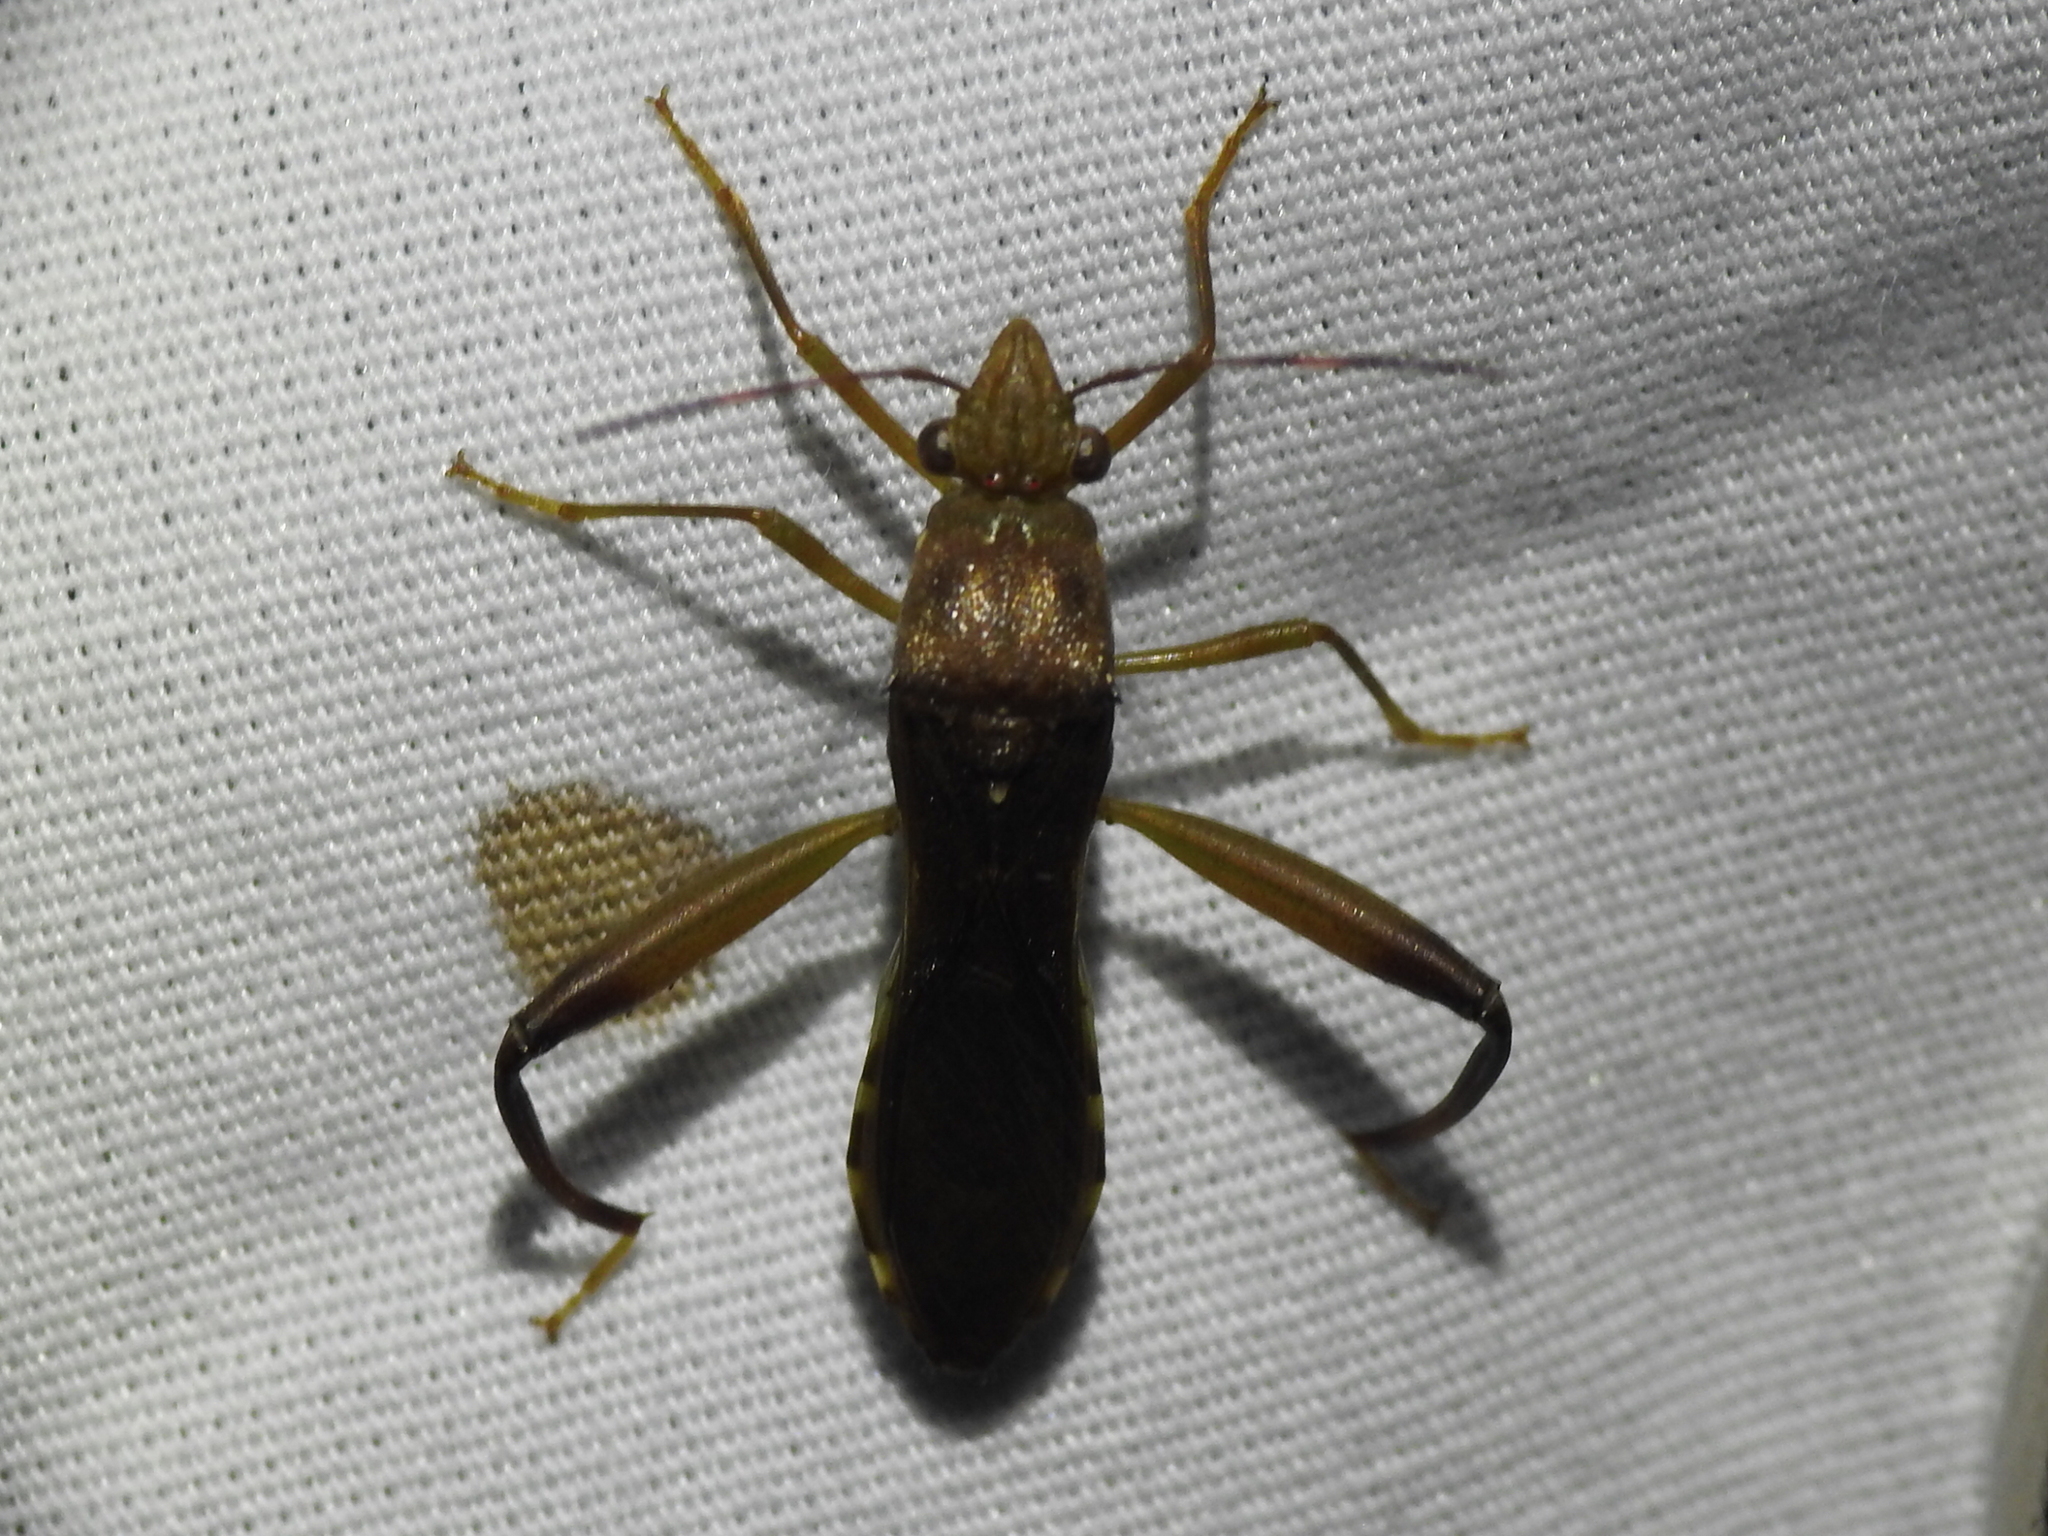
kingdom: Animalia
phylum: Arthropoda
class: Insecta
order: Hemiptera
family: Alydidae
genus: Hyalymenus
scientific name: Hyalymenus tarsatus
